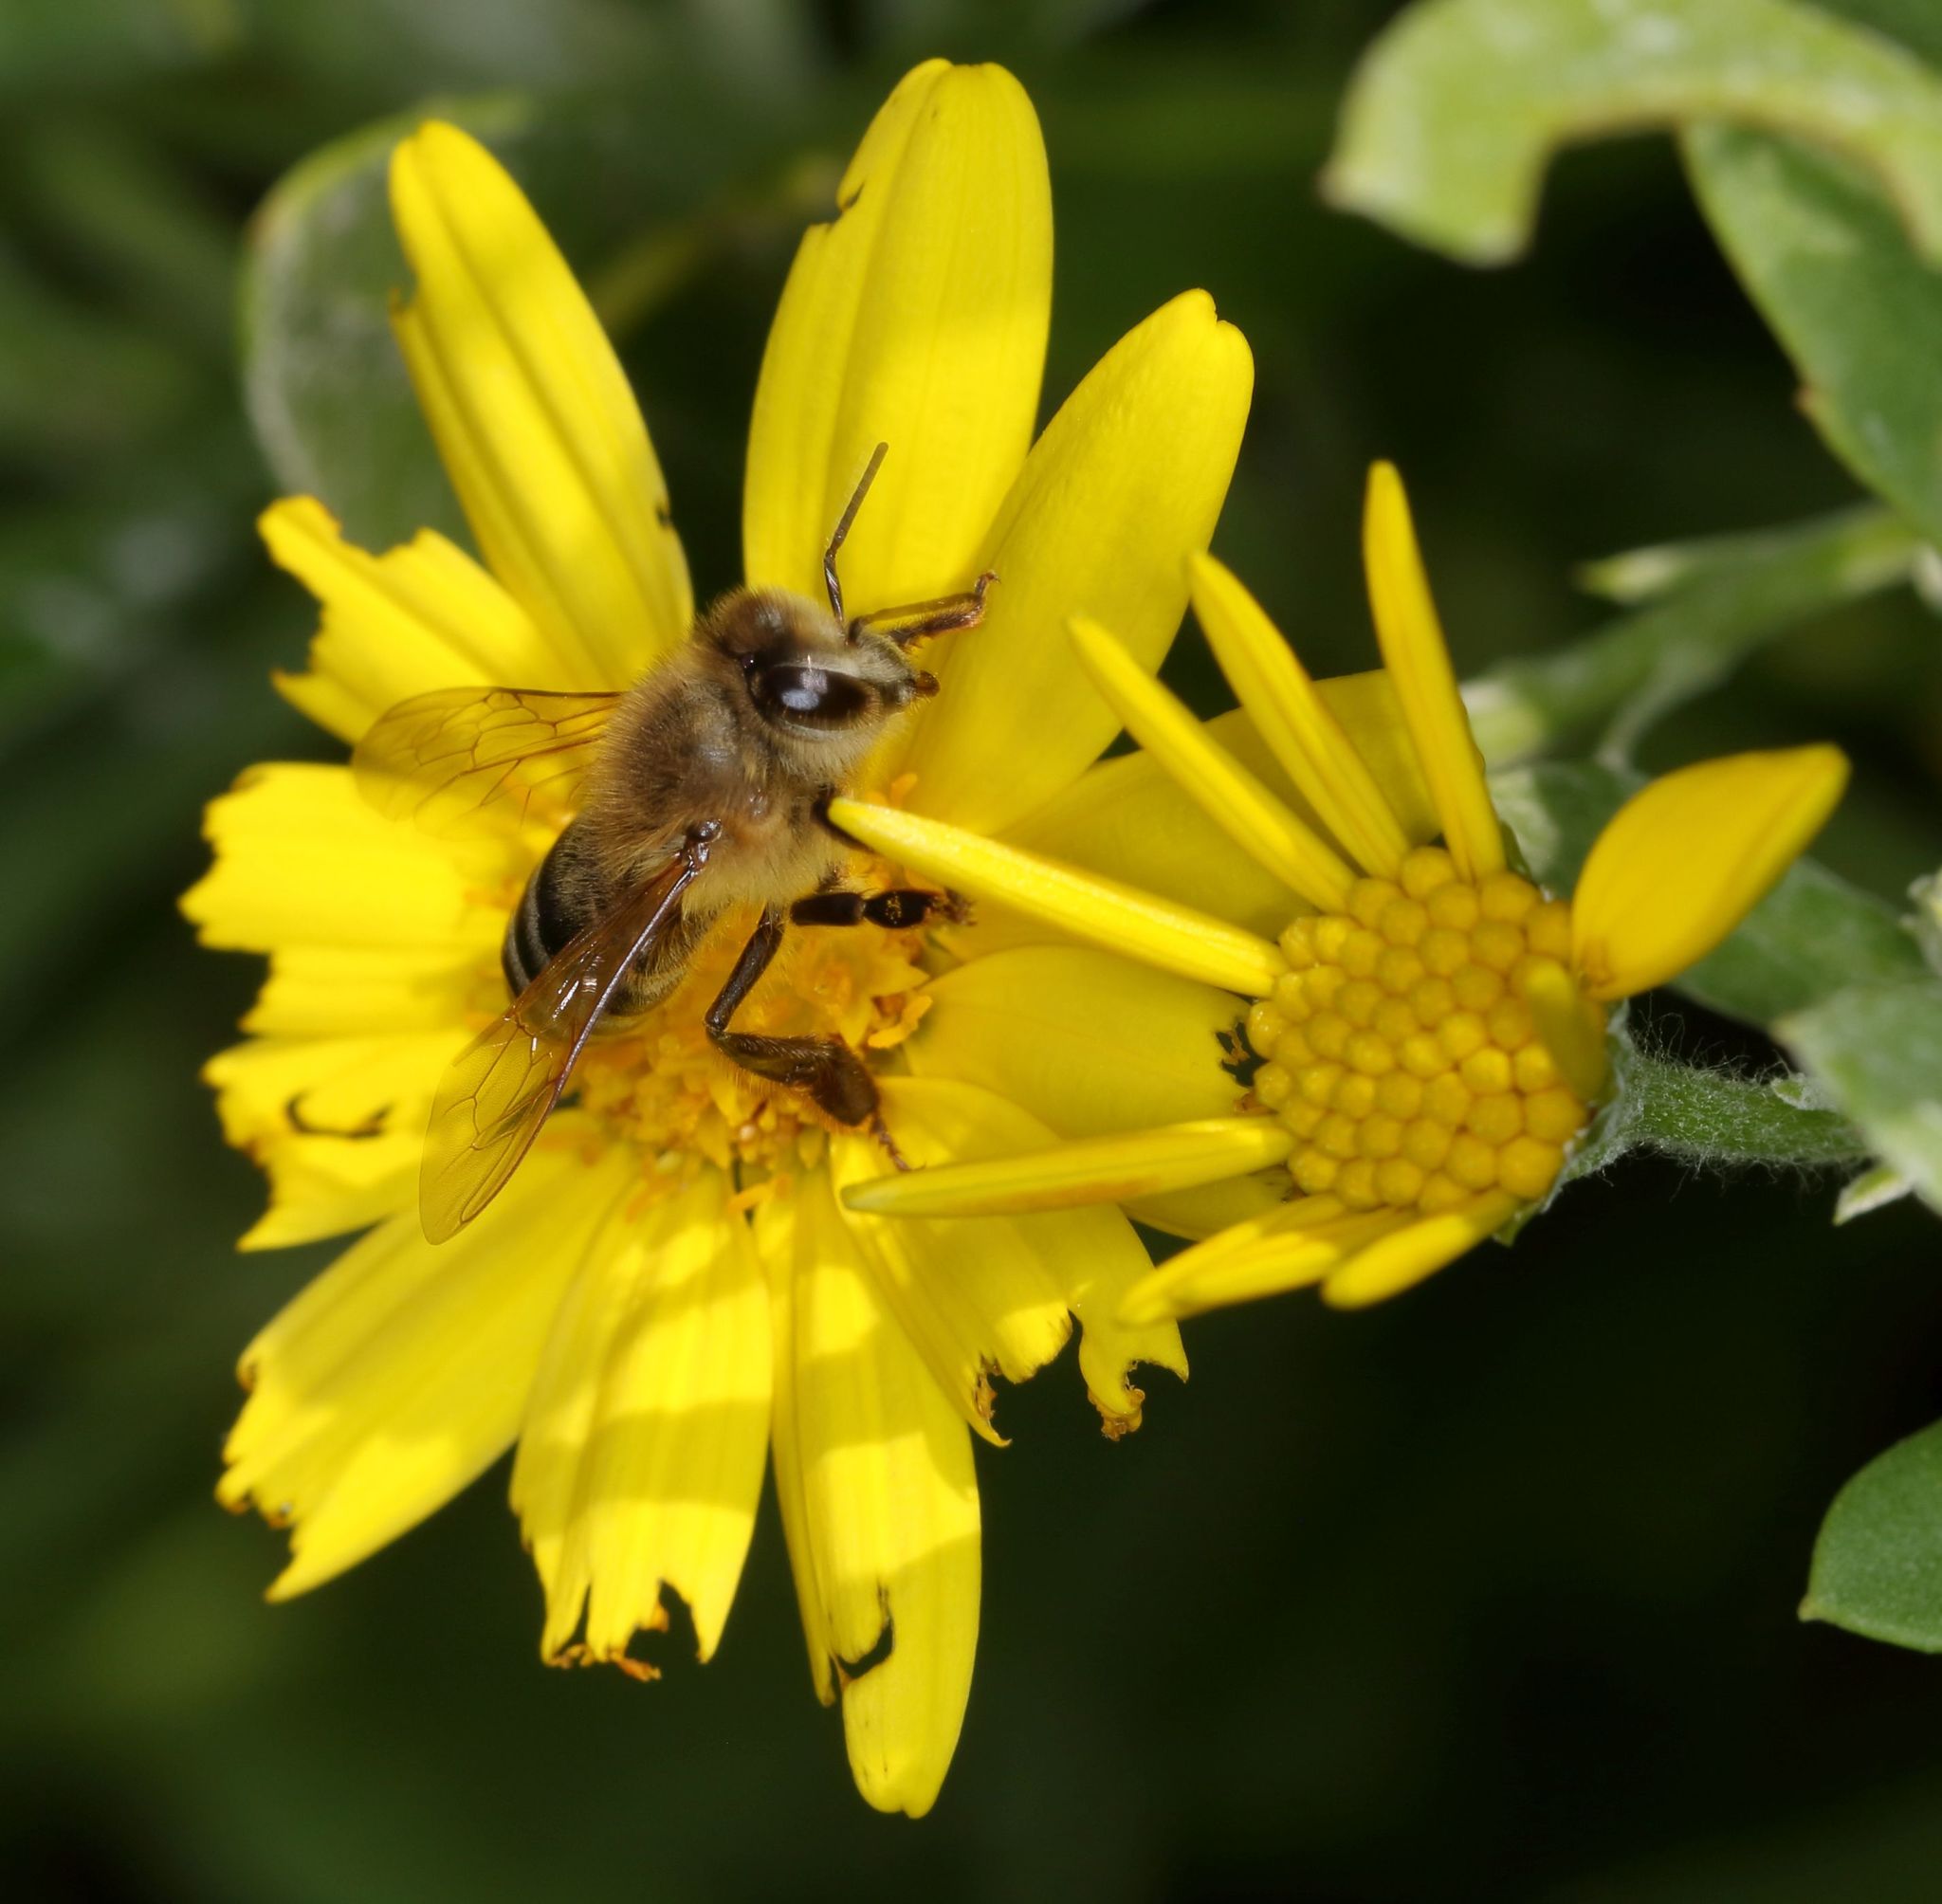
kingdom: Animalia
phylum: Arthropoda
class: Insecta
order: Hymenoptera
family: Apidae
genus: Apis
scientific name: Apis mellifera
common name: Honey bee
